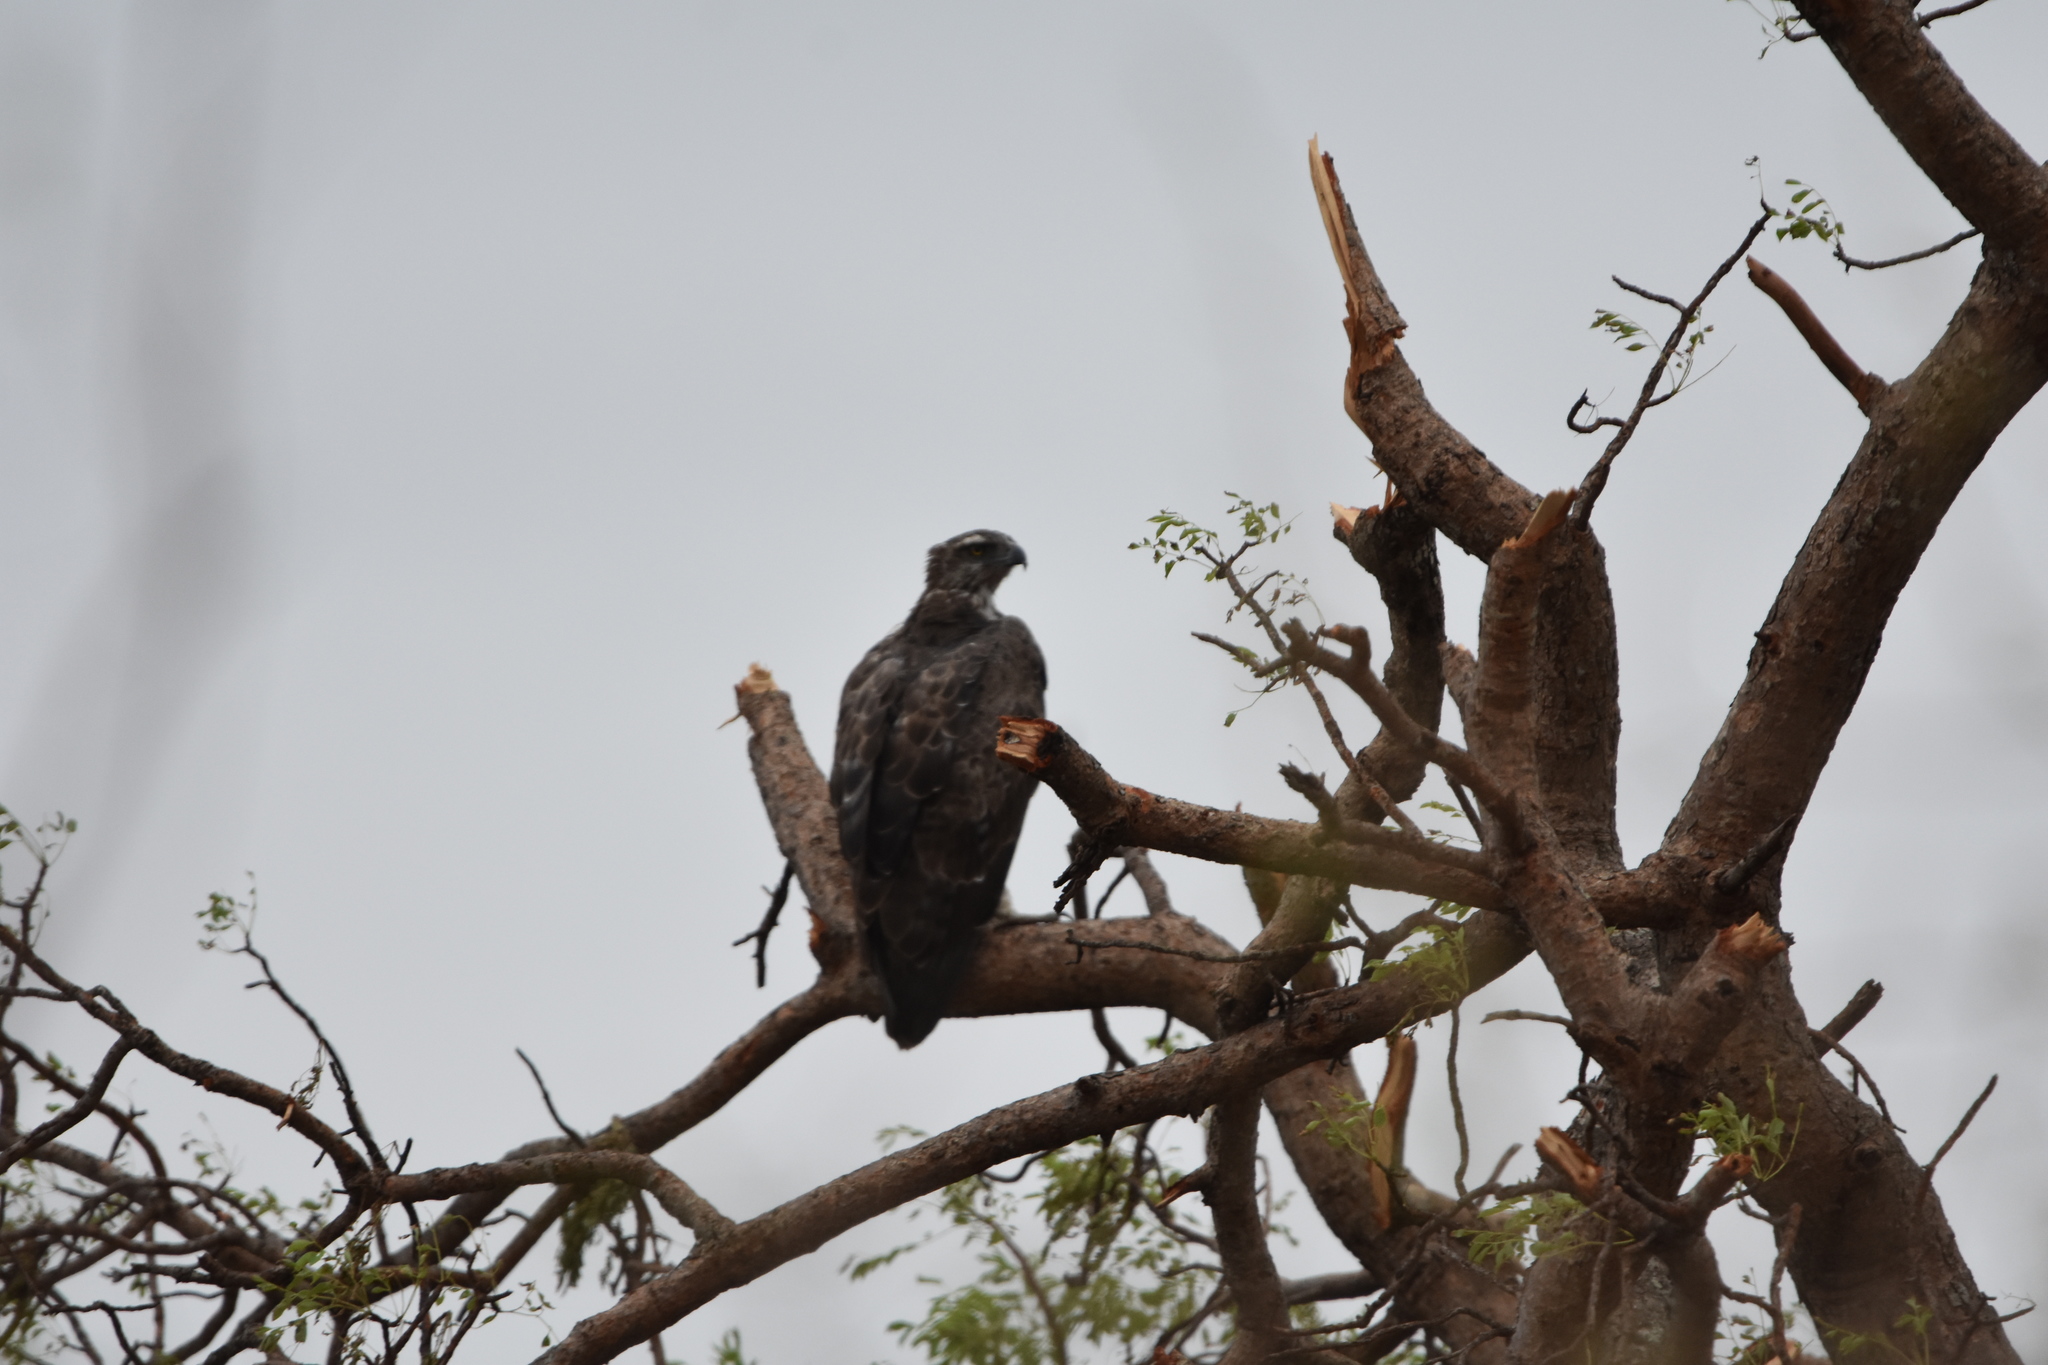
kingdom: Animalia
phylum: Chordata
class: Aves
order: Accipitriformes
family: Accipitridae
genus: Polemaetus
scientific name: Polemaetus bellicosus
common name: Martial eagle
